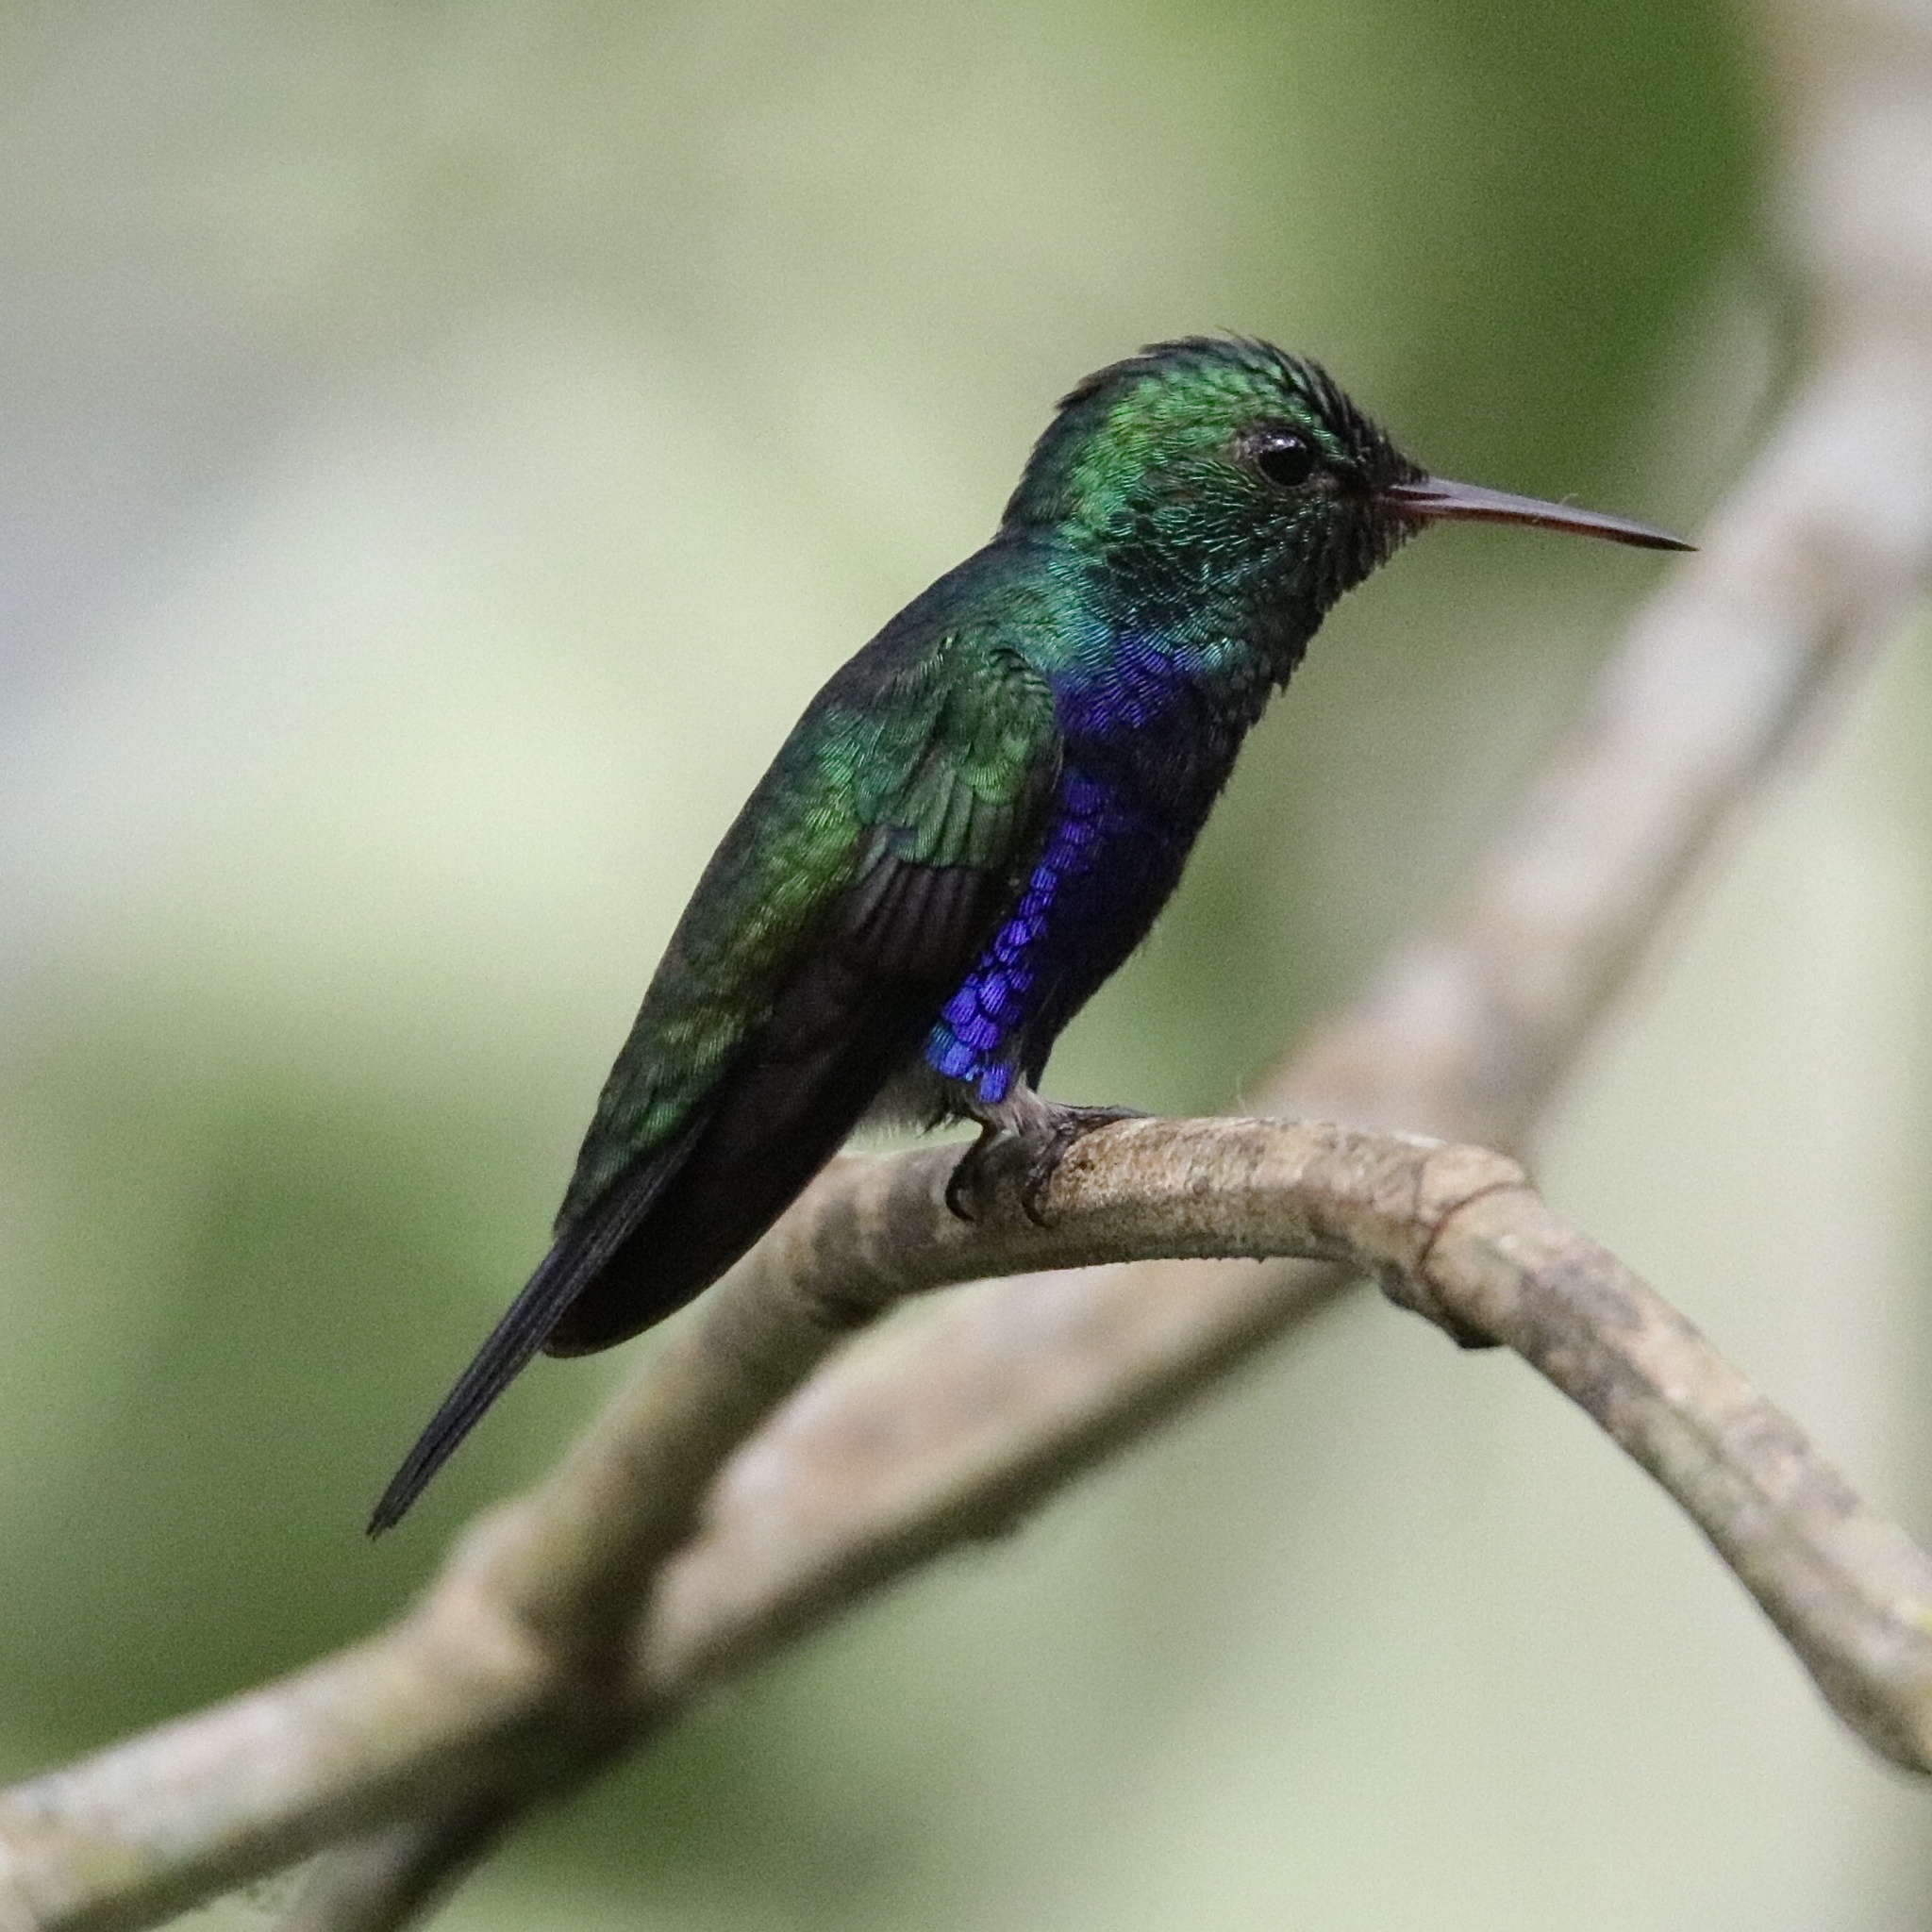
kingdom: Animalia
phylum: Chordata
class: Aves
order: Apodiformes
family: Trochilidae
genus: Chlorestes
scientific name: Chlorestes julie
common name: Violet-bellied hummingbird
